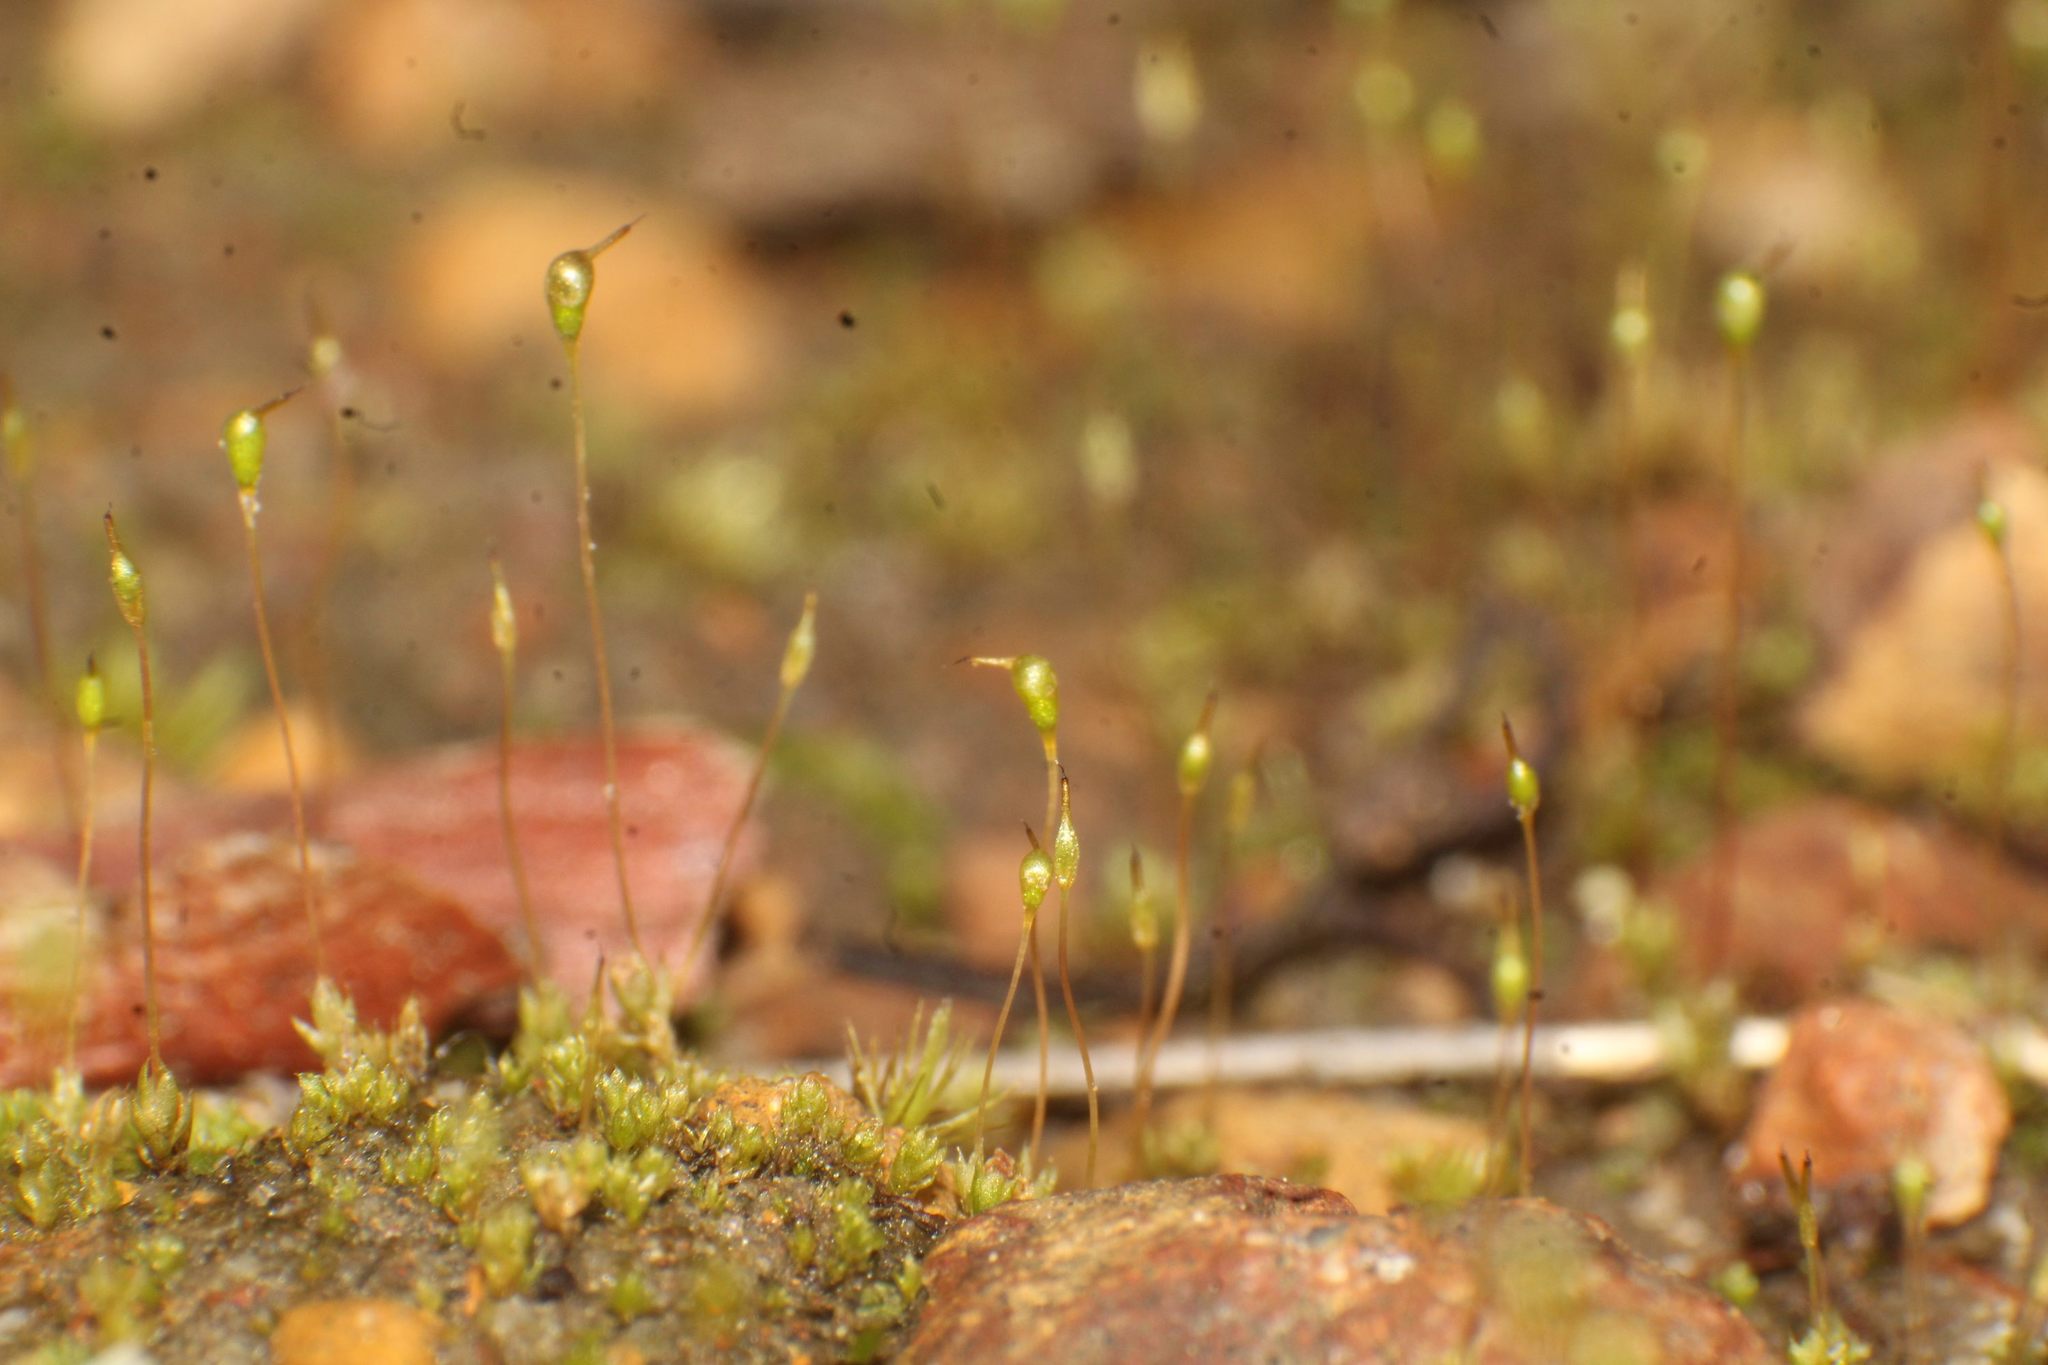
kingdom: Plantae
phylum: Bryophyta
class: Bryopsida
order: Funariales
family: Funariaceae
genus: Entosthodon
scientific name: Entosthodon subnudus
